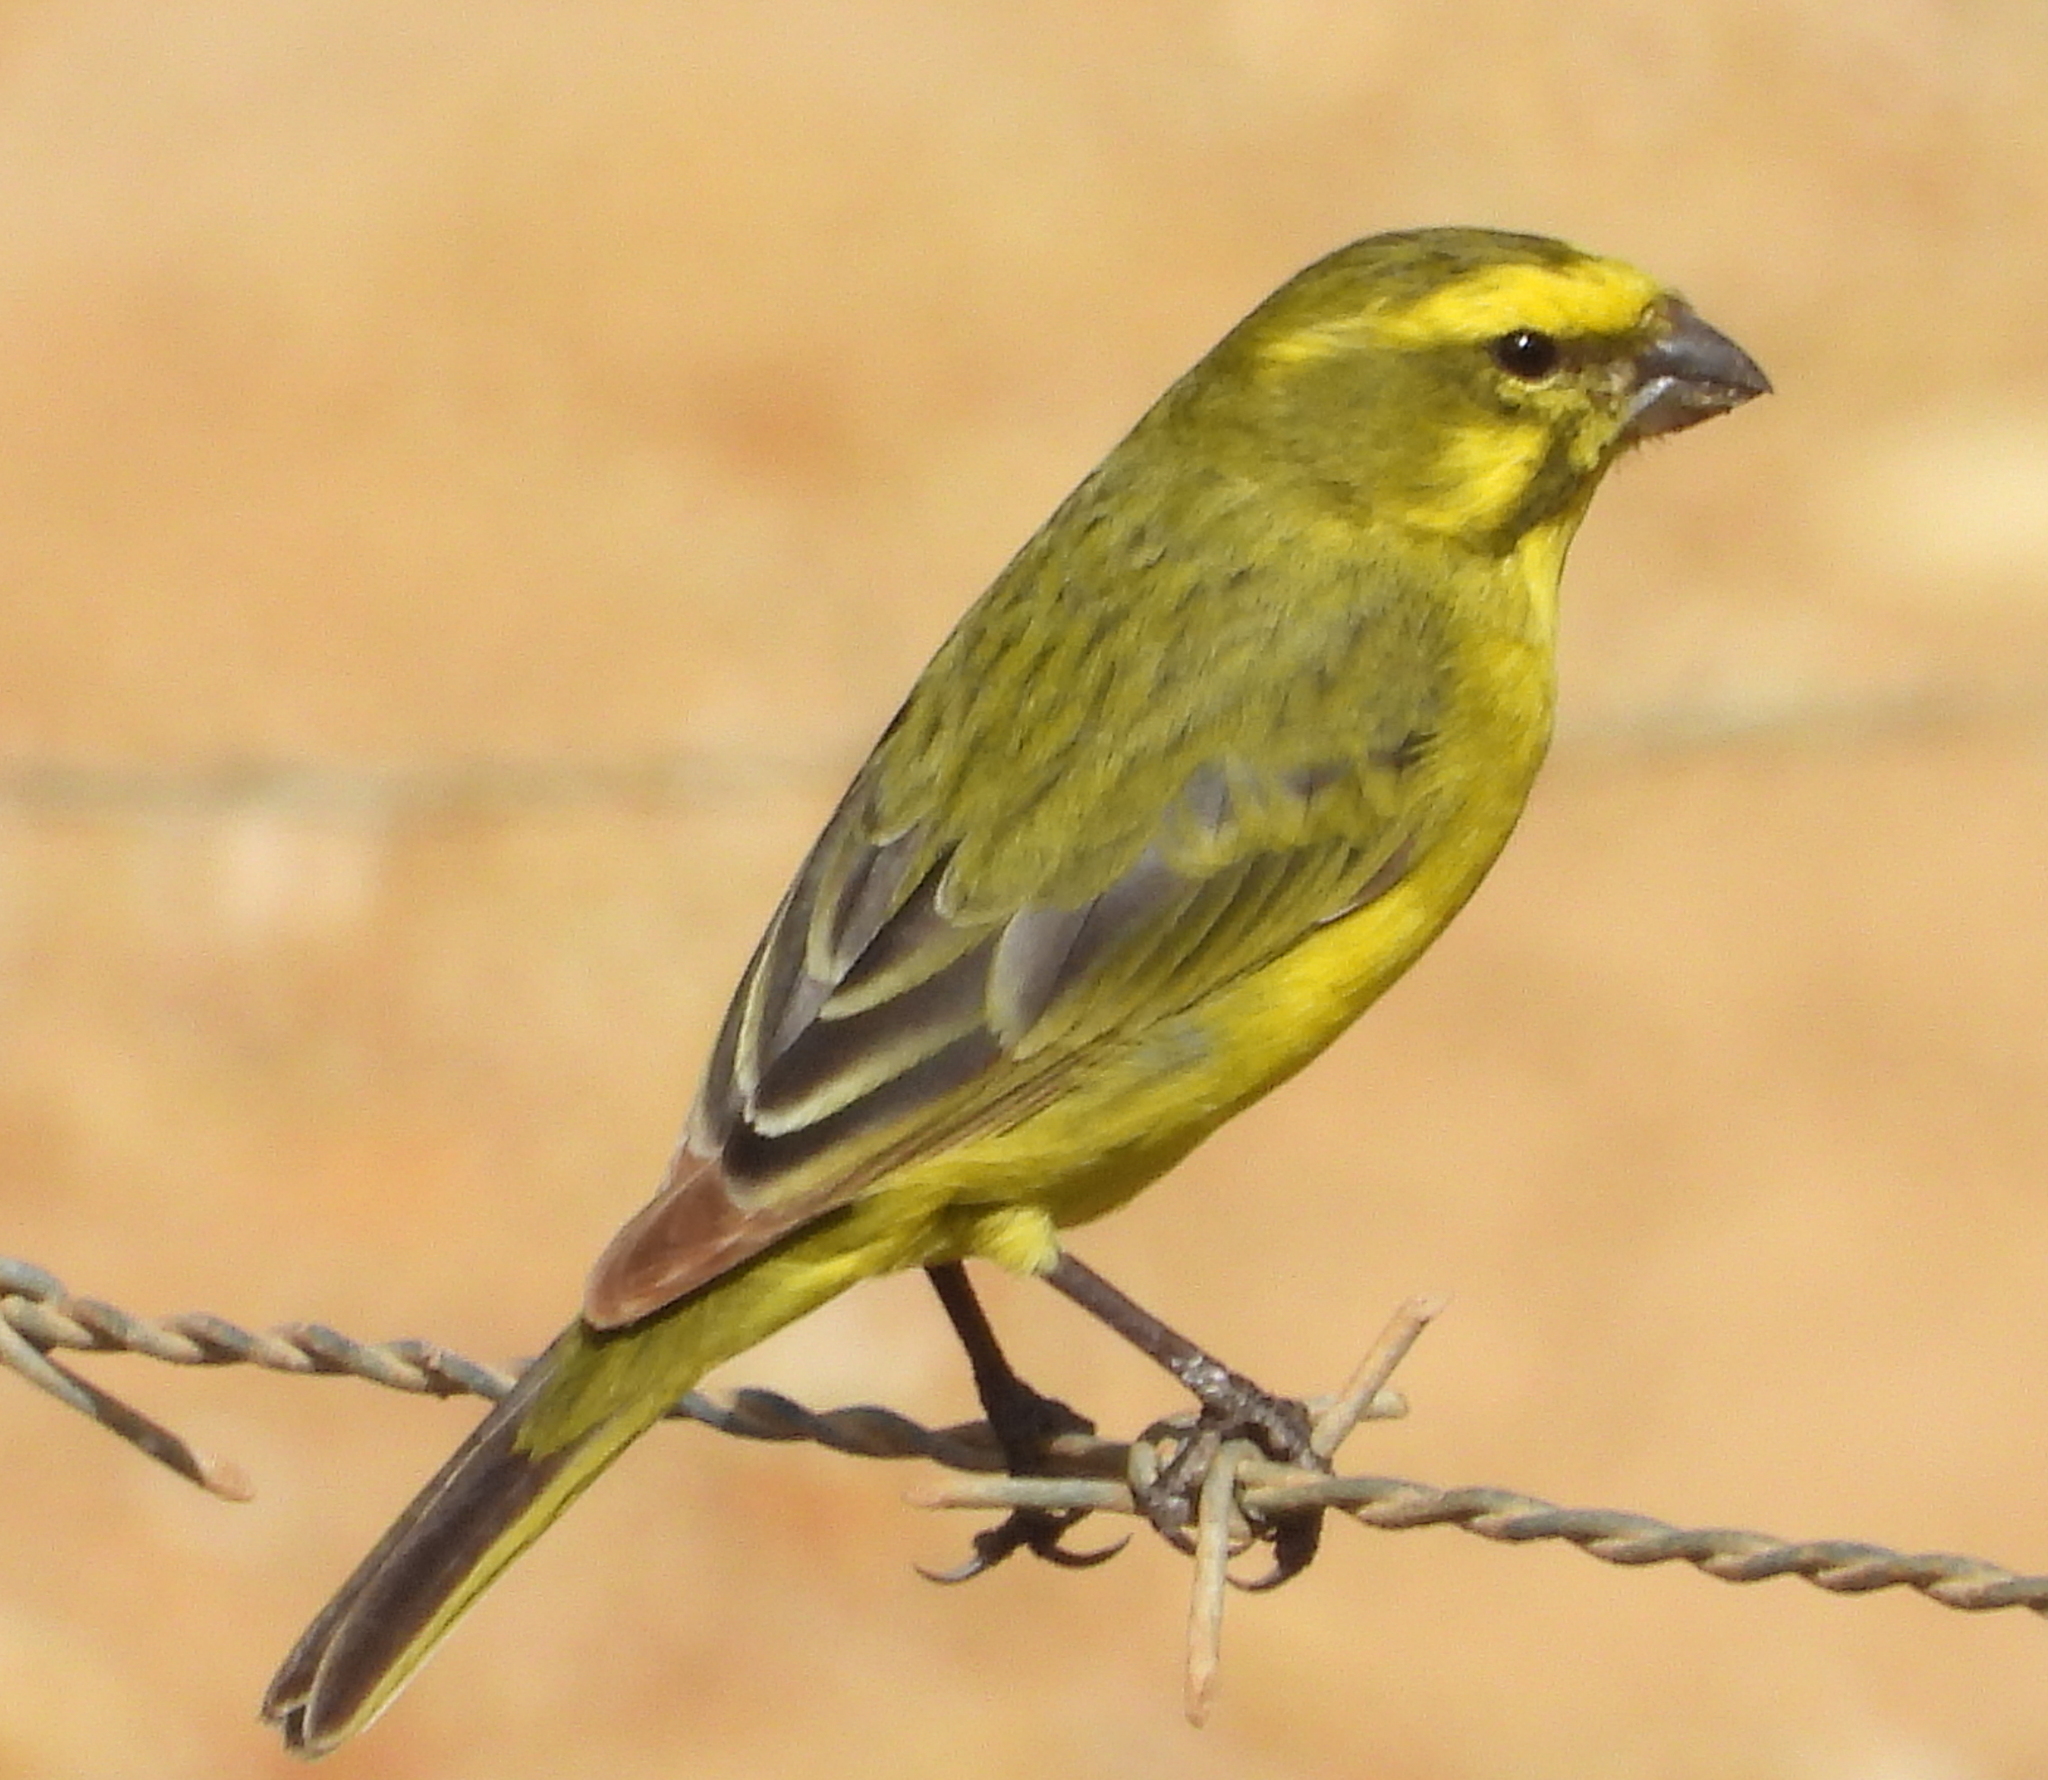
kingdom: Animalia
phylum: Chordata
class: Aves
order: Passeriformes
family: Fringillidae
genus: Crithagra
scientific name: Crithagra flaviventris
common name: Yellow canary
